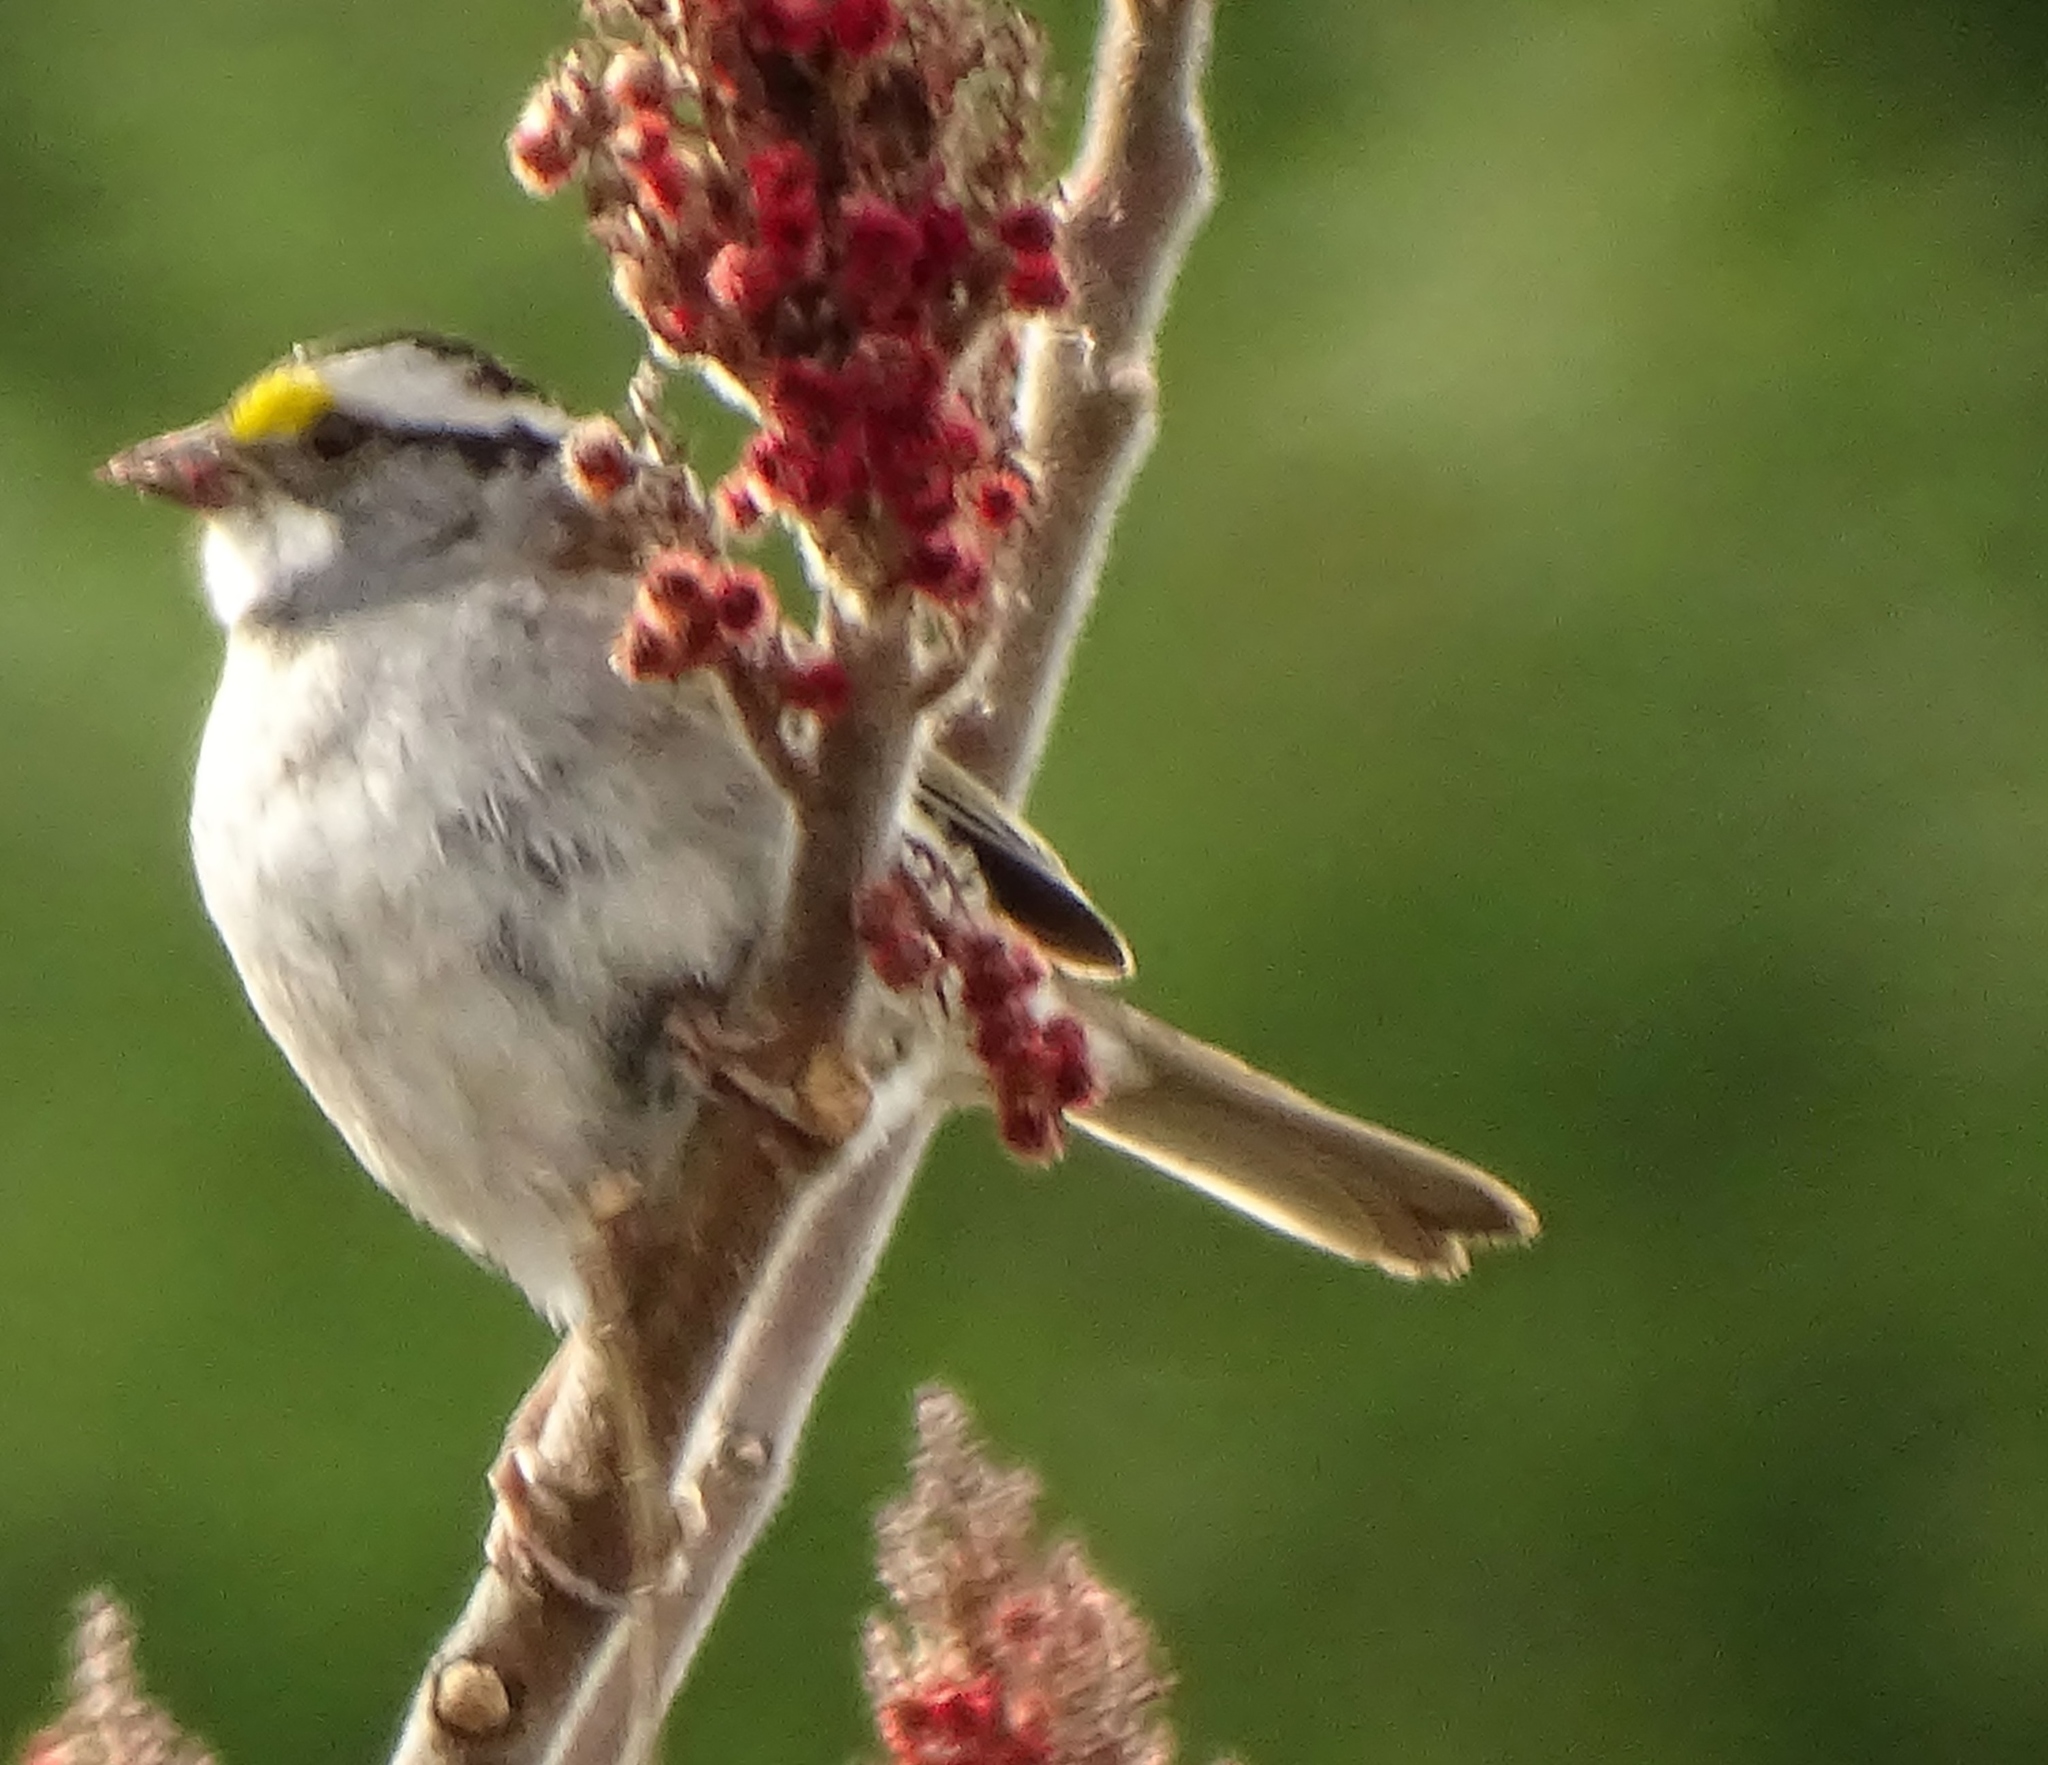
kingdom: Animalia
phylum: Chordata
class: Aves
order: Passeriformes
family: Passerellidae
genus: Zonotrichia
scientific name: Zonotrichia albicollis
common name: White-throated sparrow
